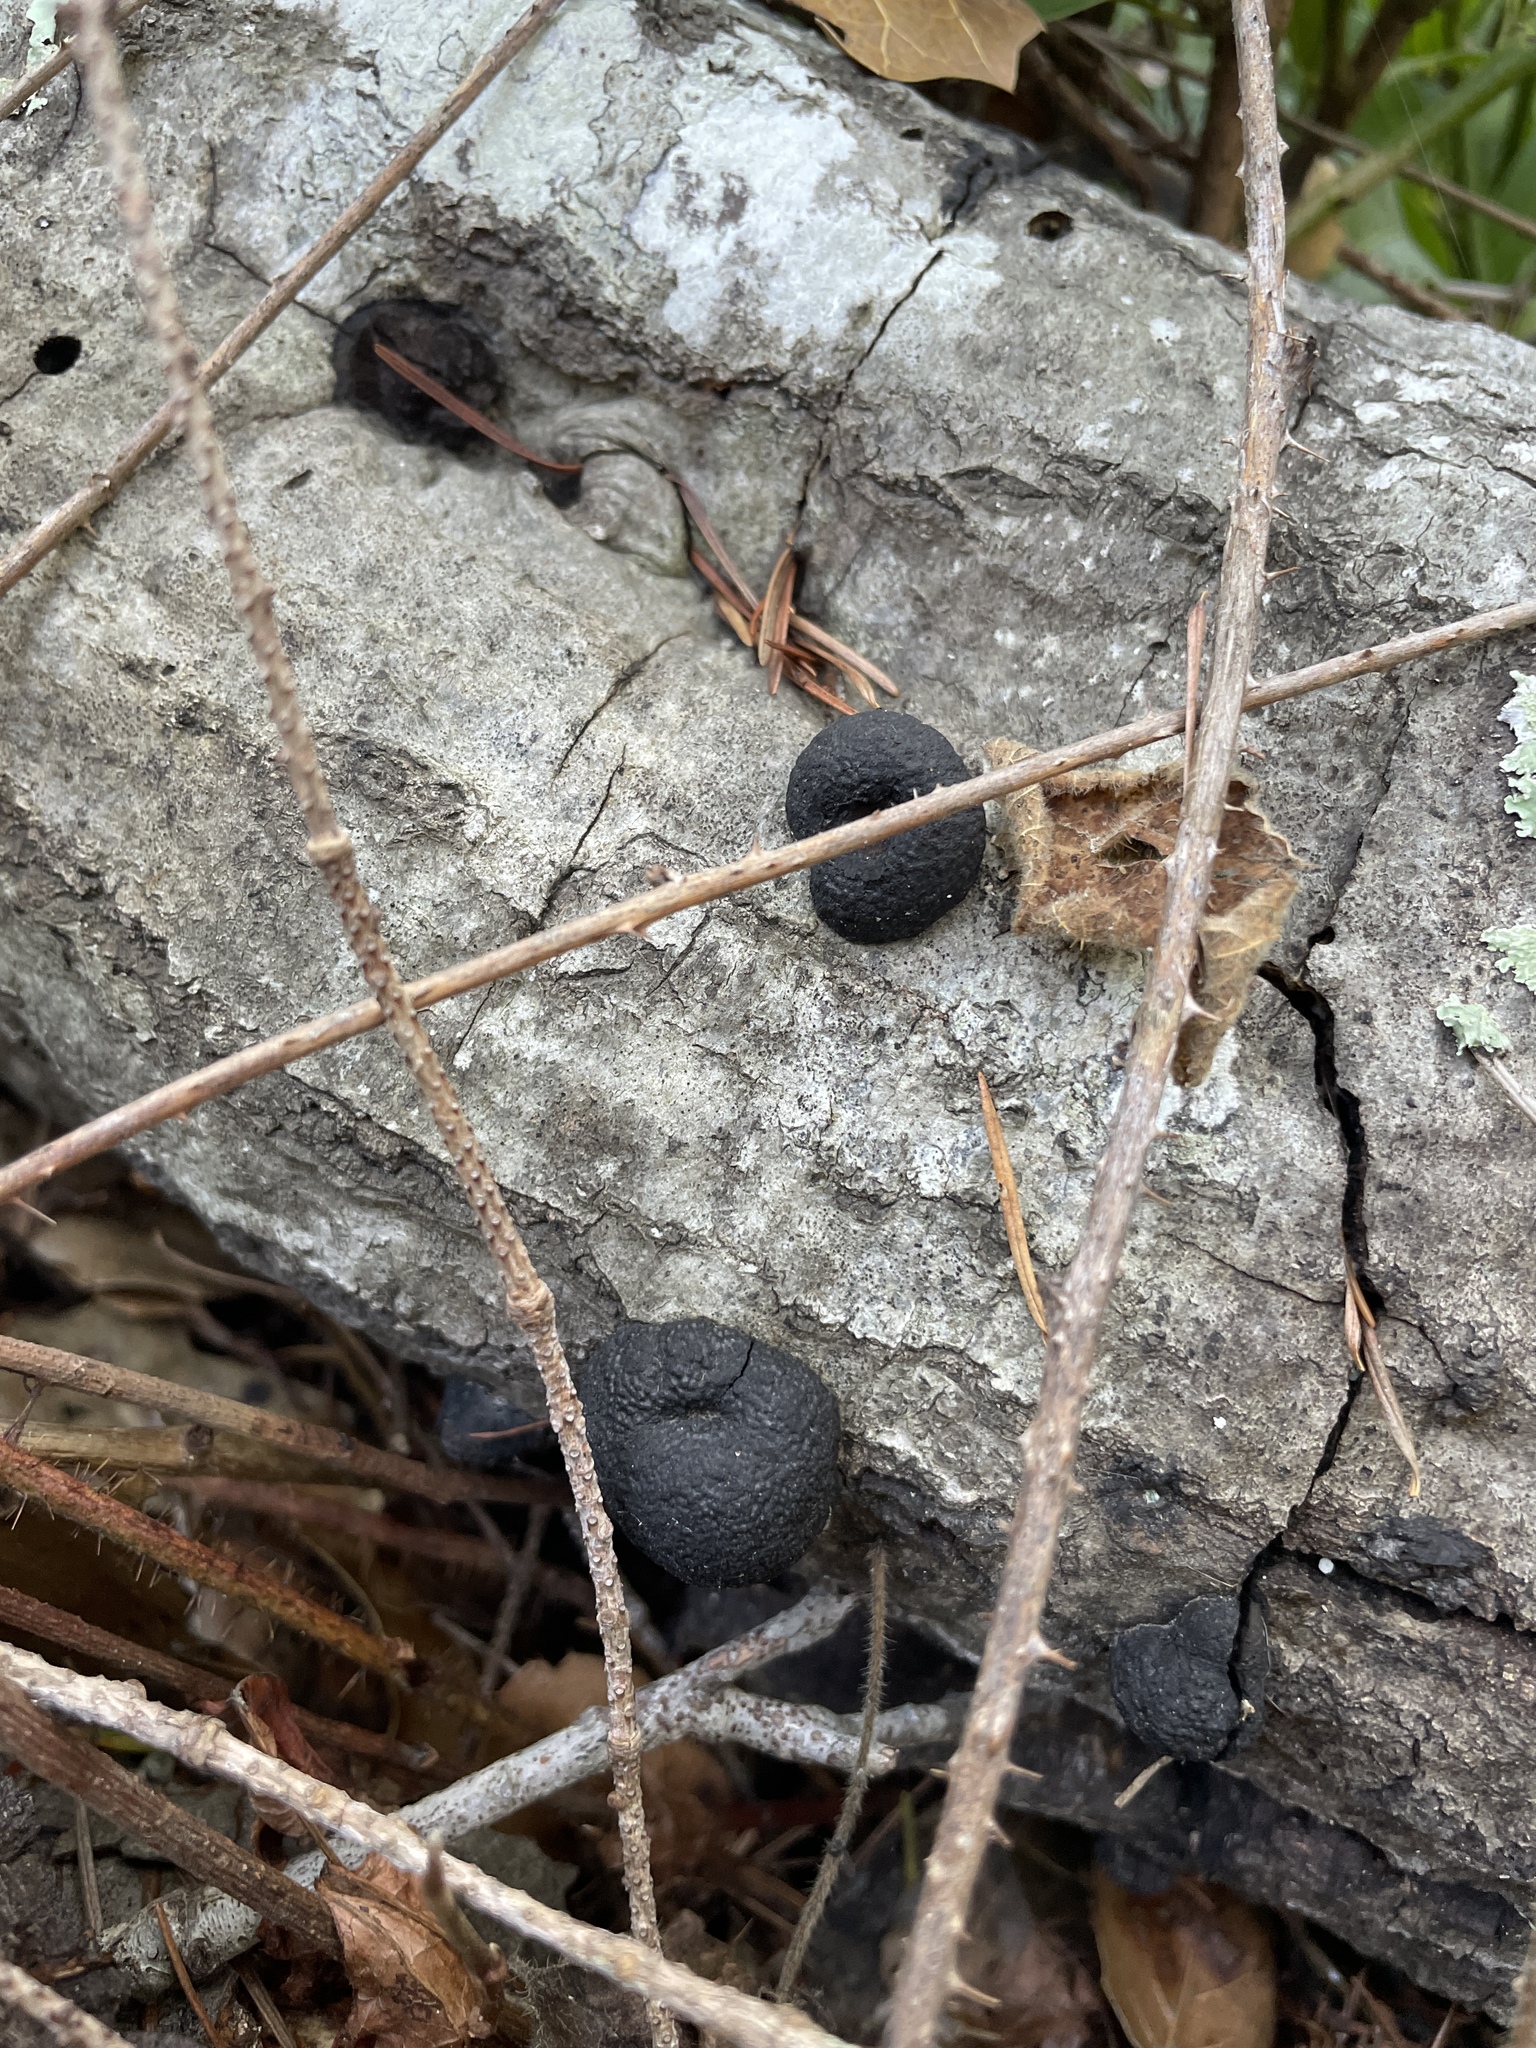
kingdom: Fungi
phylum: Ascomycota
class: Sordariomycetes
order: Xylariales
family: Hypoxylaceae
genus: Annulohypoxylon
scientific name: Annulohypoxylon thouarsianum
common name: Cramp balls
